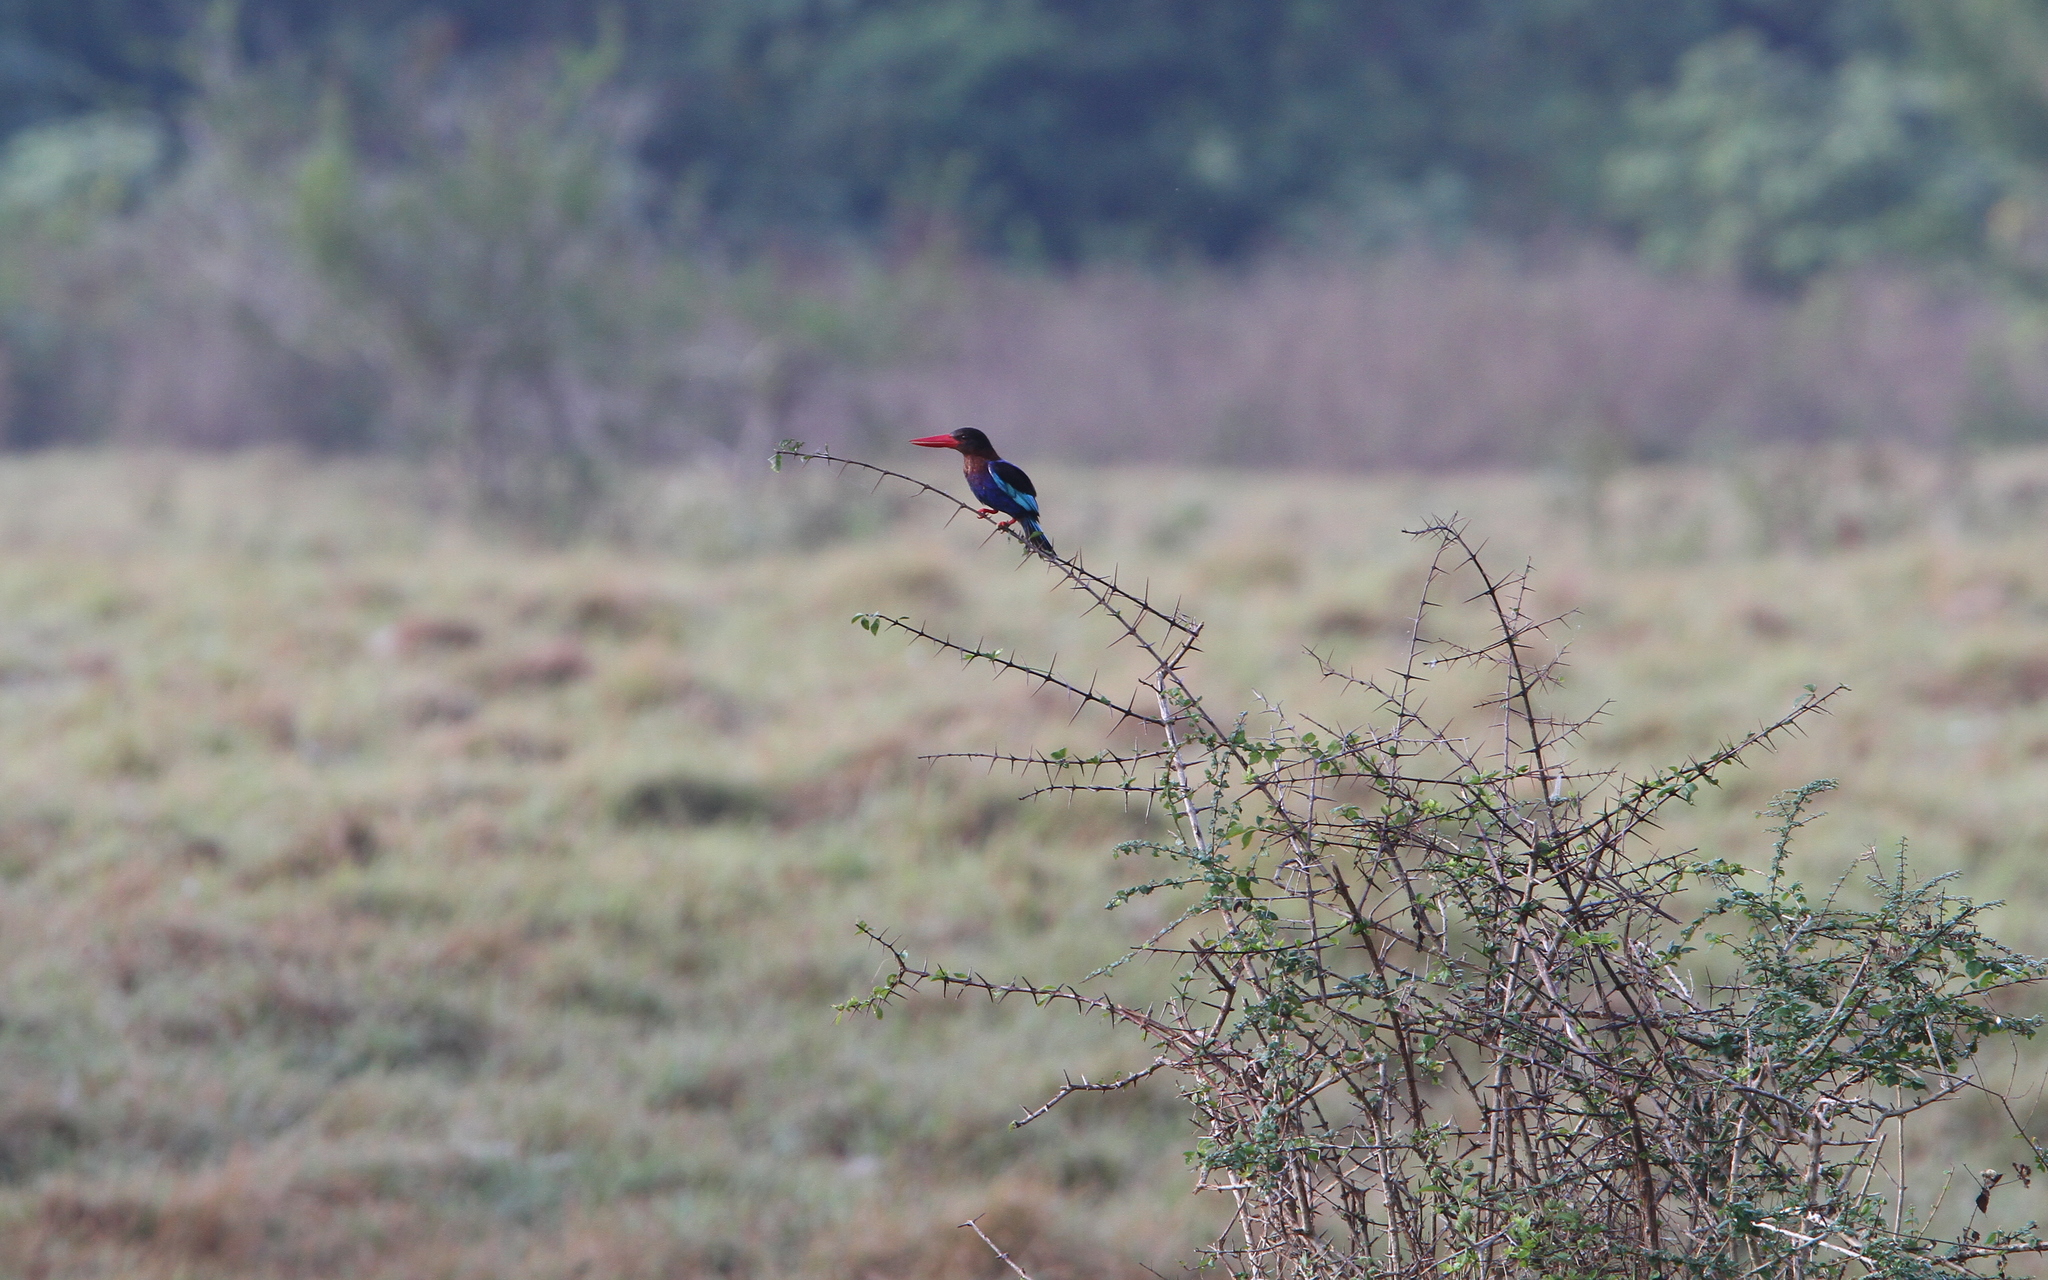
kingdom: Animalia
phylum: Chordata
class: Aves
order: Coraciiformes
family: Alcedinidae
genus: Halcyon
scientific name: Halcyon cyanoventris
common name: Javan kingfisher
